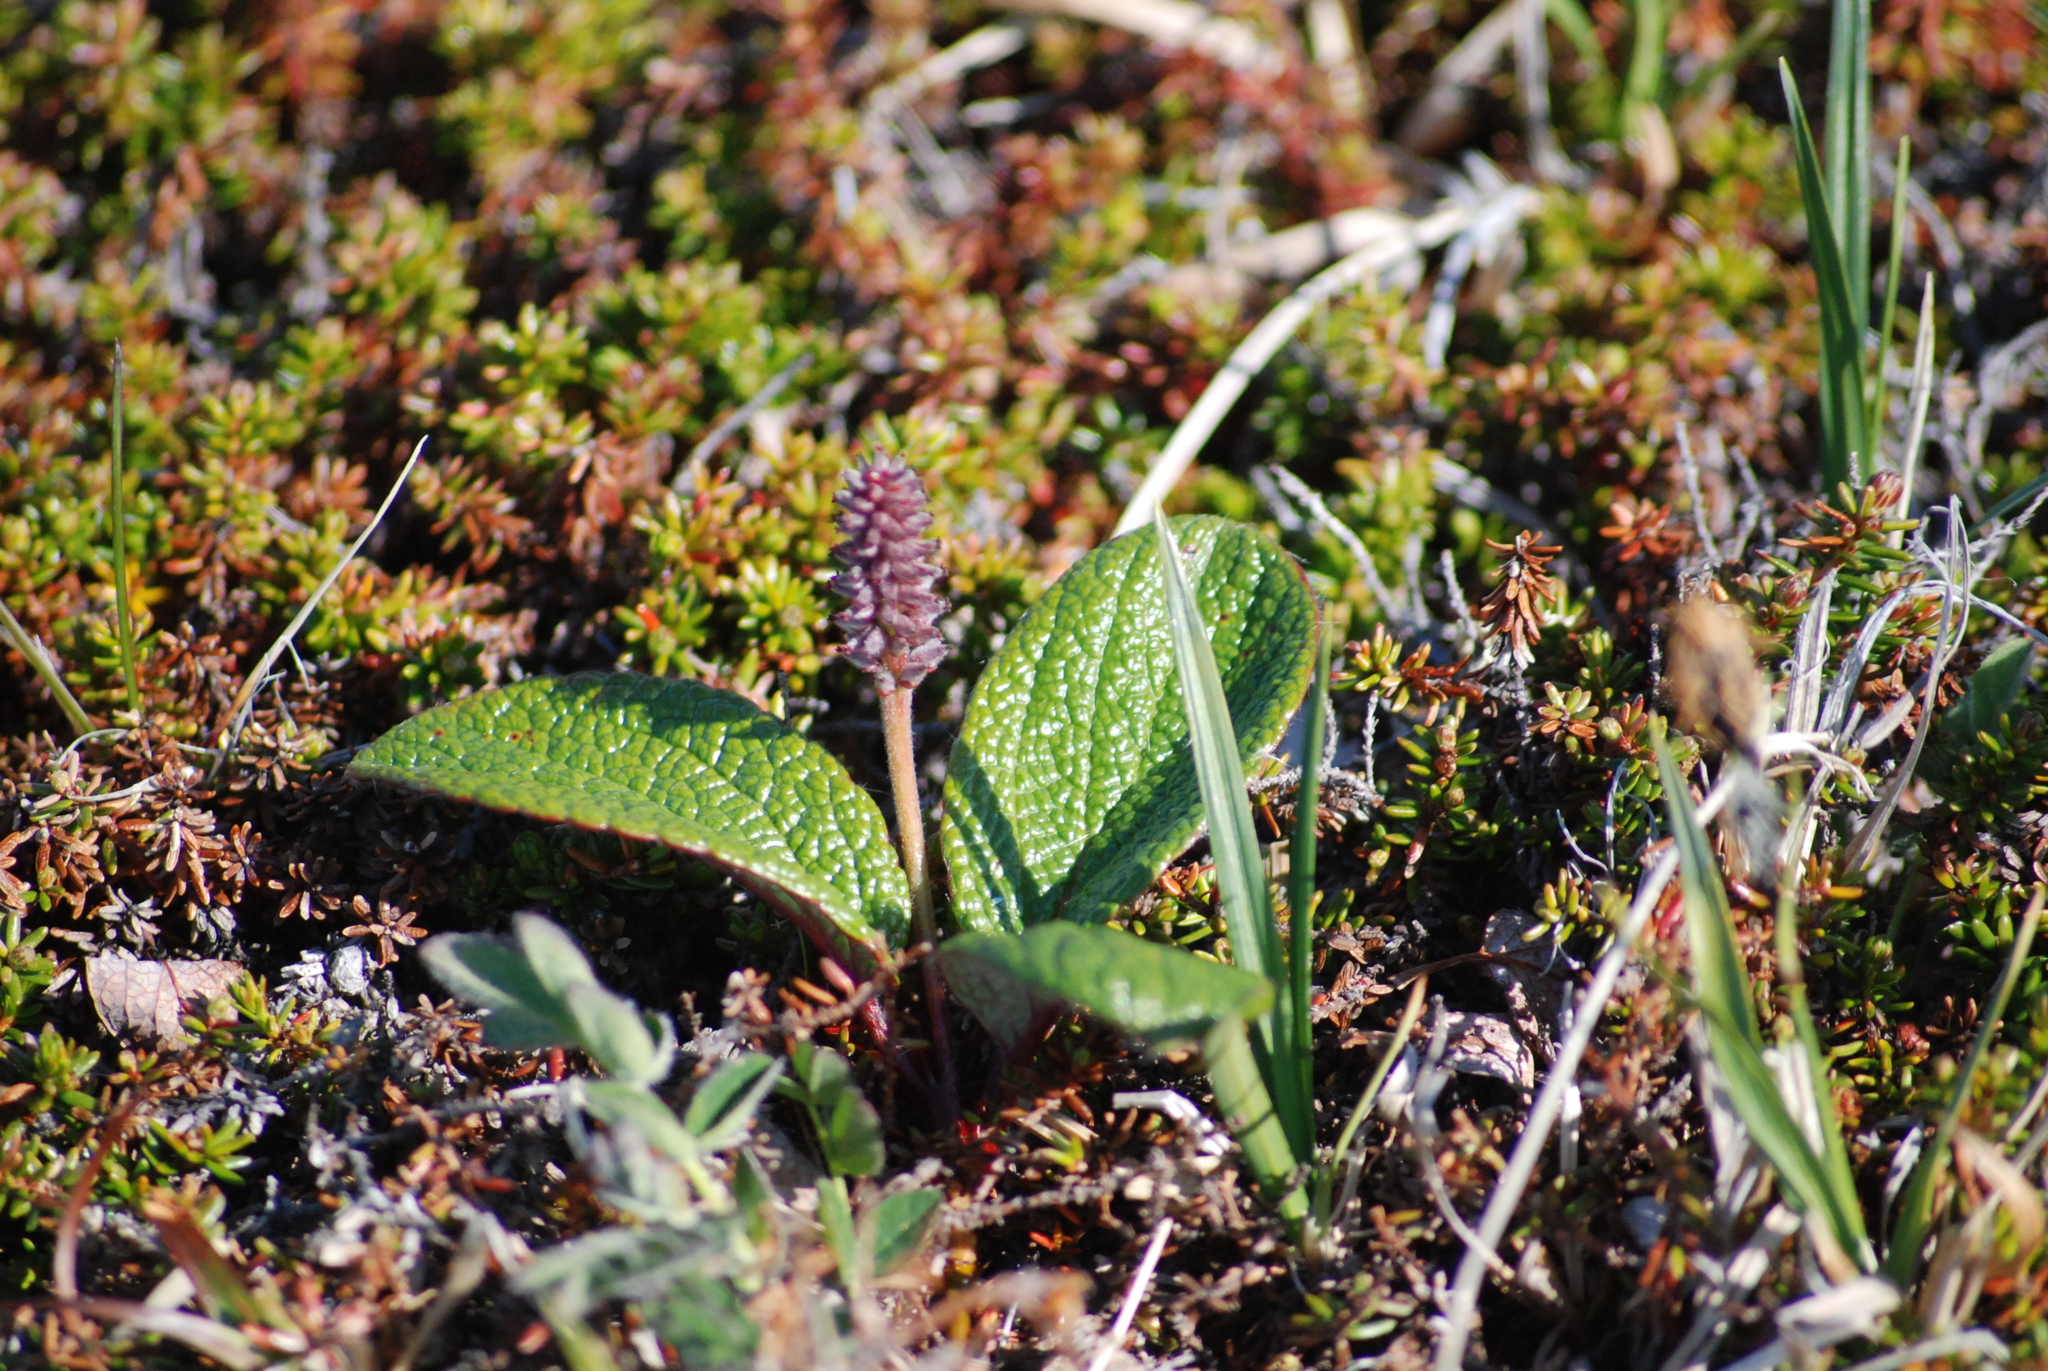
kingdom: Plantae
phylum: Tracheophyta
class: Magnoliopsida
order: Malpighiales
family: Salicaceae
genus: Salix
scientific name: Salix reticulata
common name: Net-leaved willow
